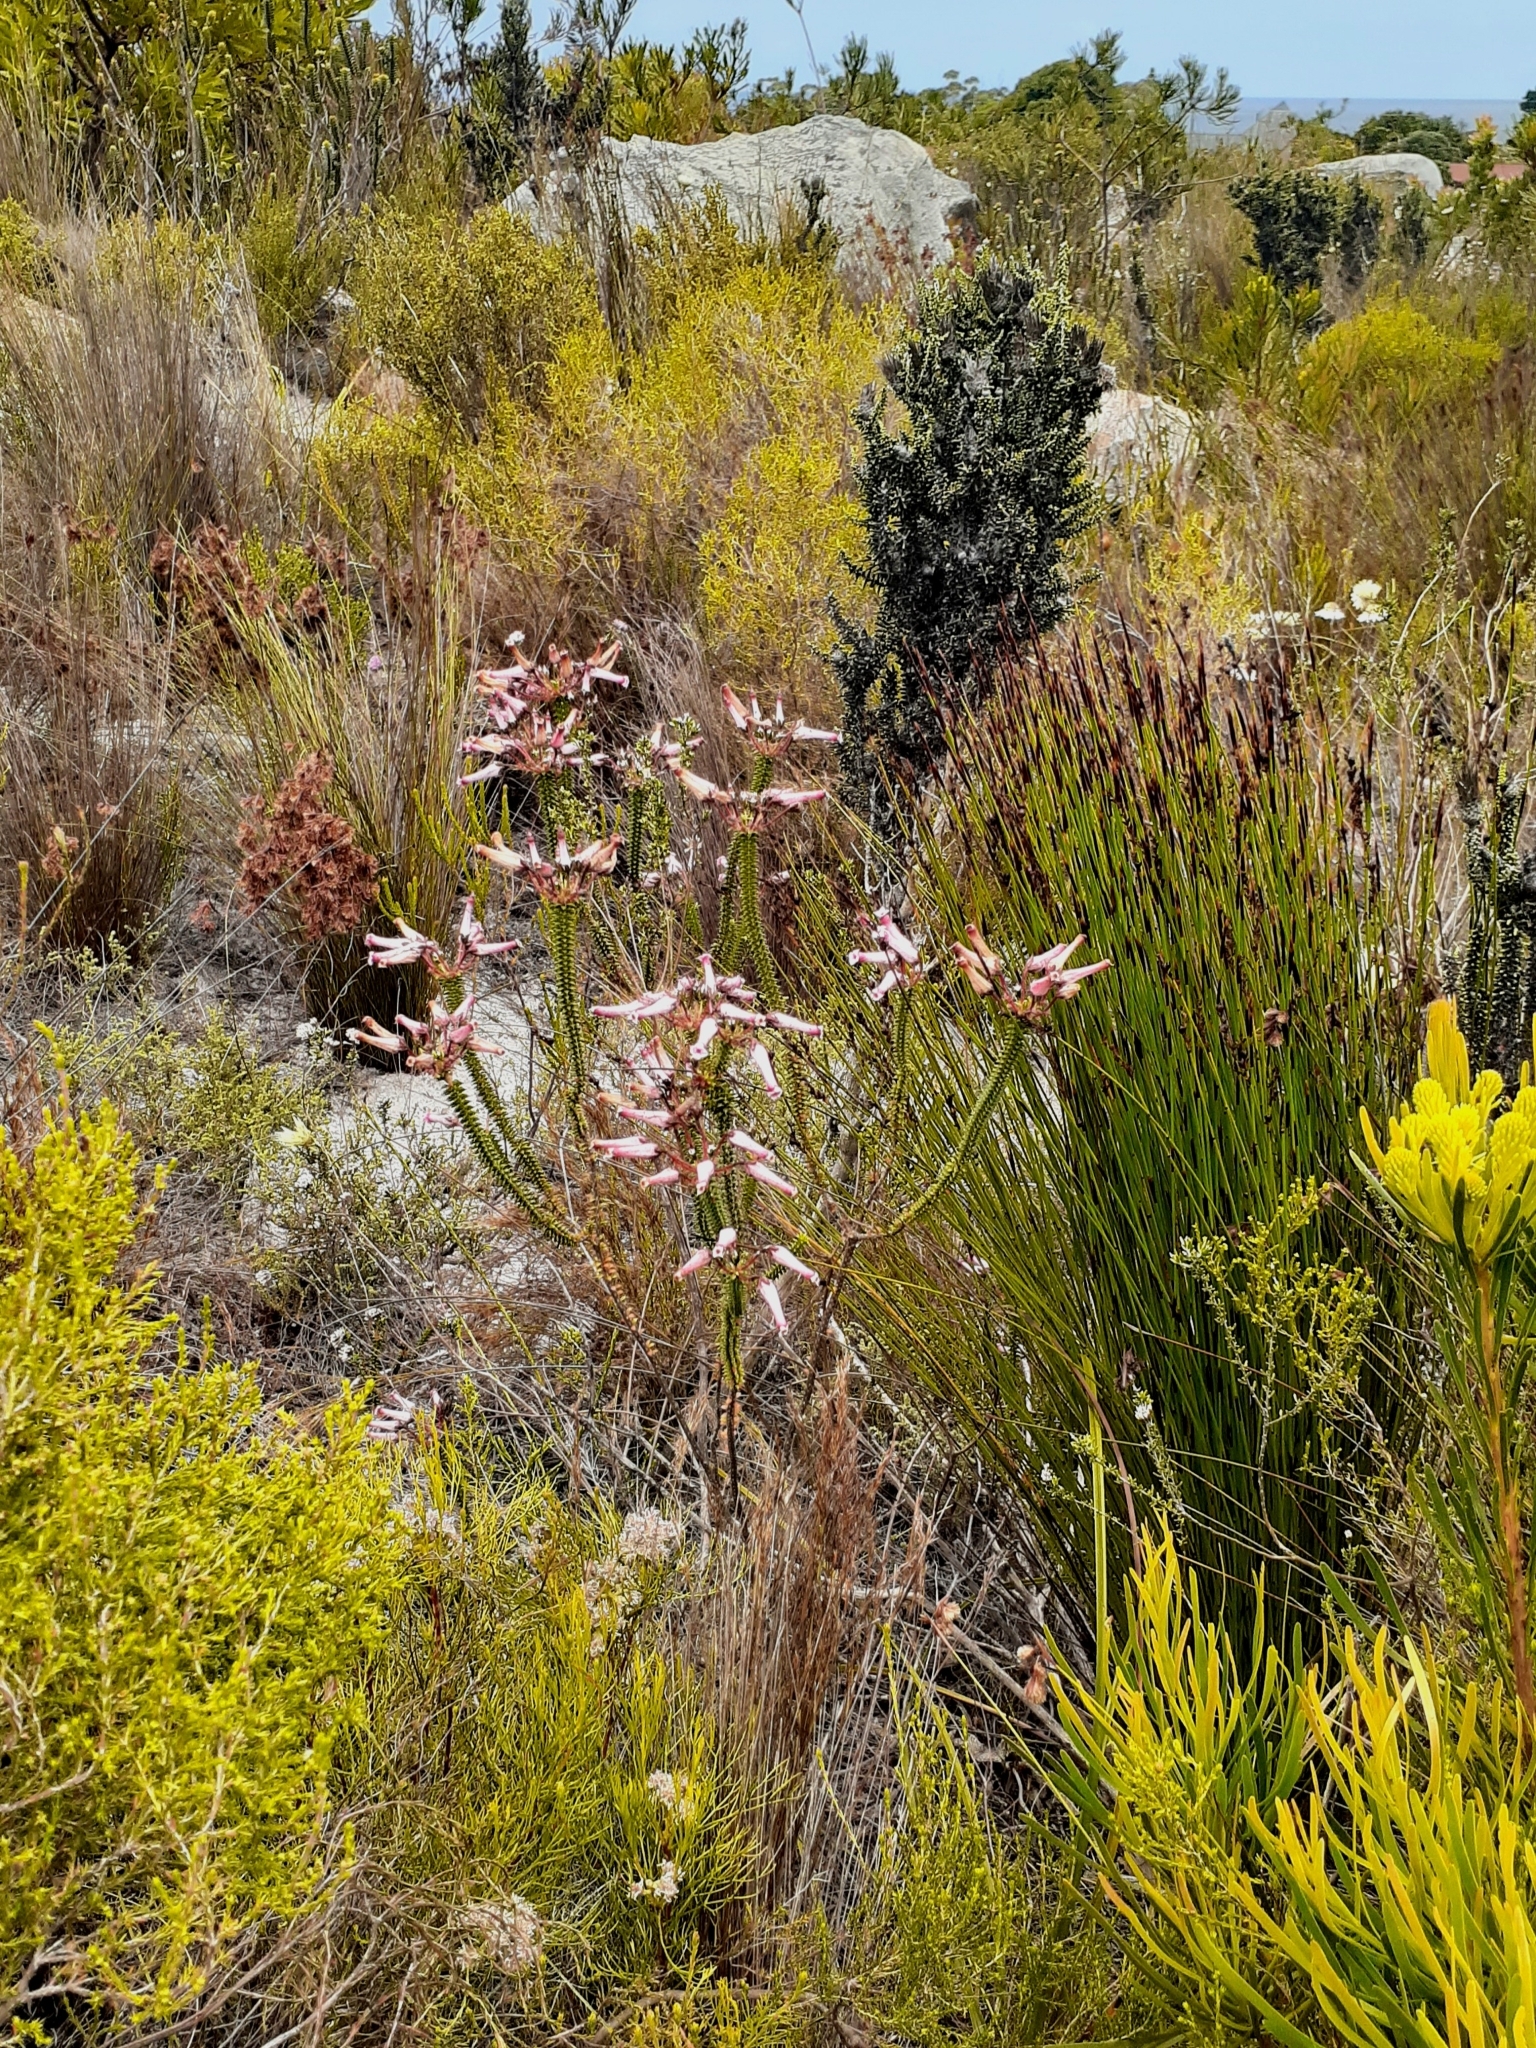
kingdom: Plantae
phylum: Tracheophyta
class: Magnoliopsida
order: Ericales
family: Ericaceae
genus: Erica
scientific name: Erica retorta
